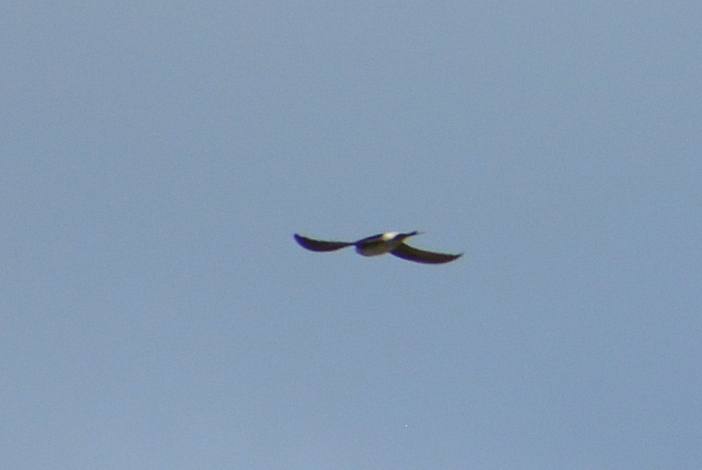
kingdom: Animalia
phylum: Chordata
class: Aves
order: Passeriformes
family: Hirundinidae
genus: Delichon
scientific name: Delichon urbicum
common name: Common house martin
